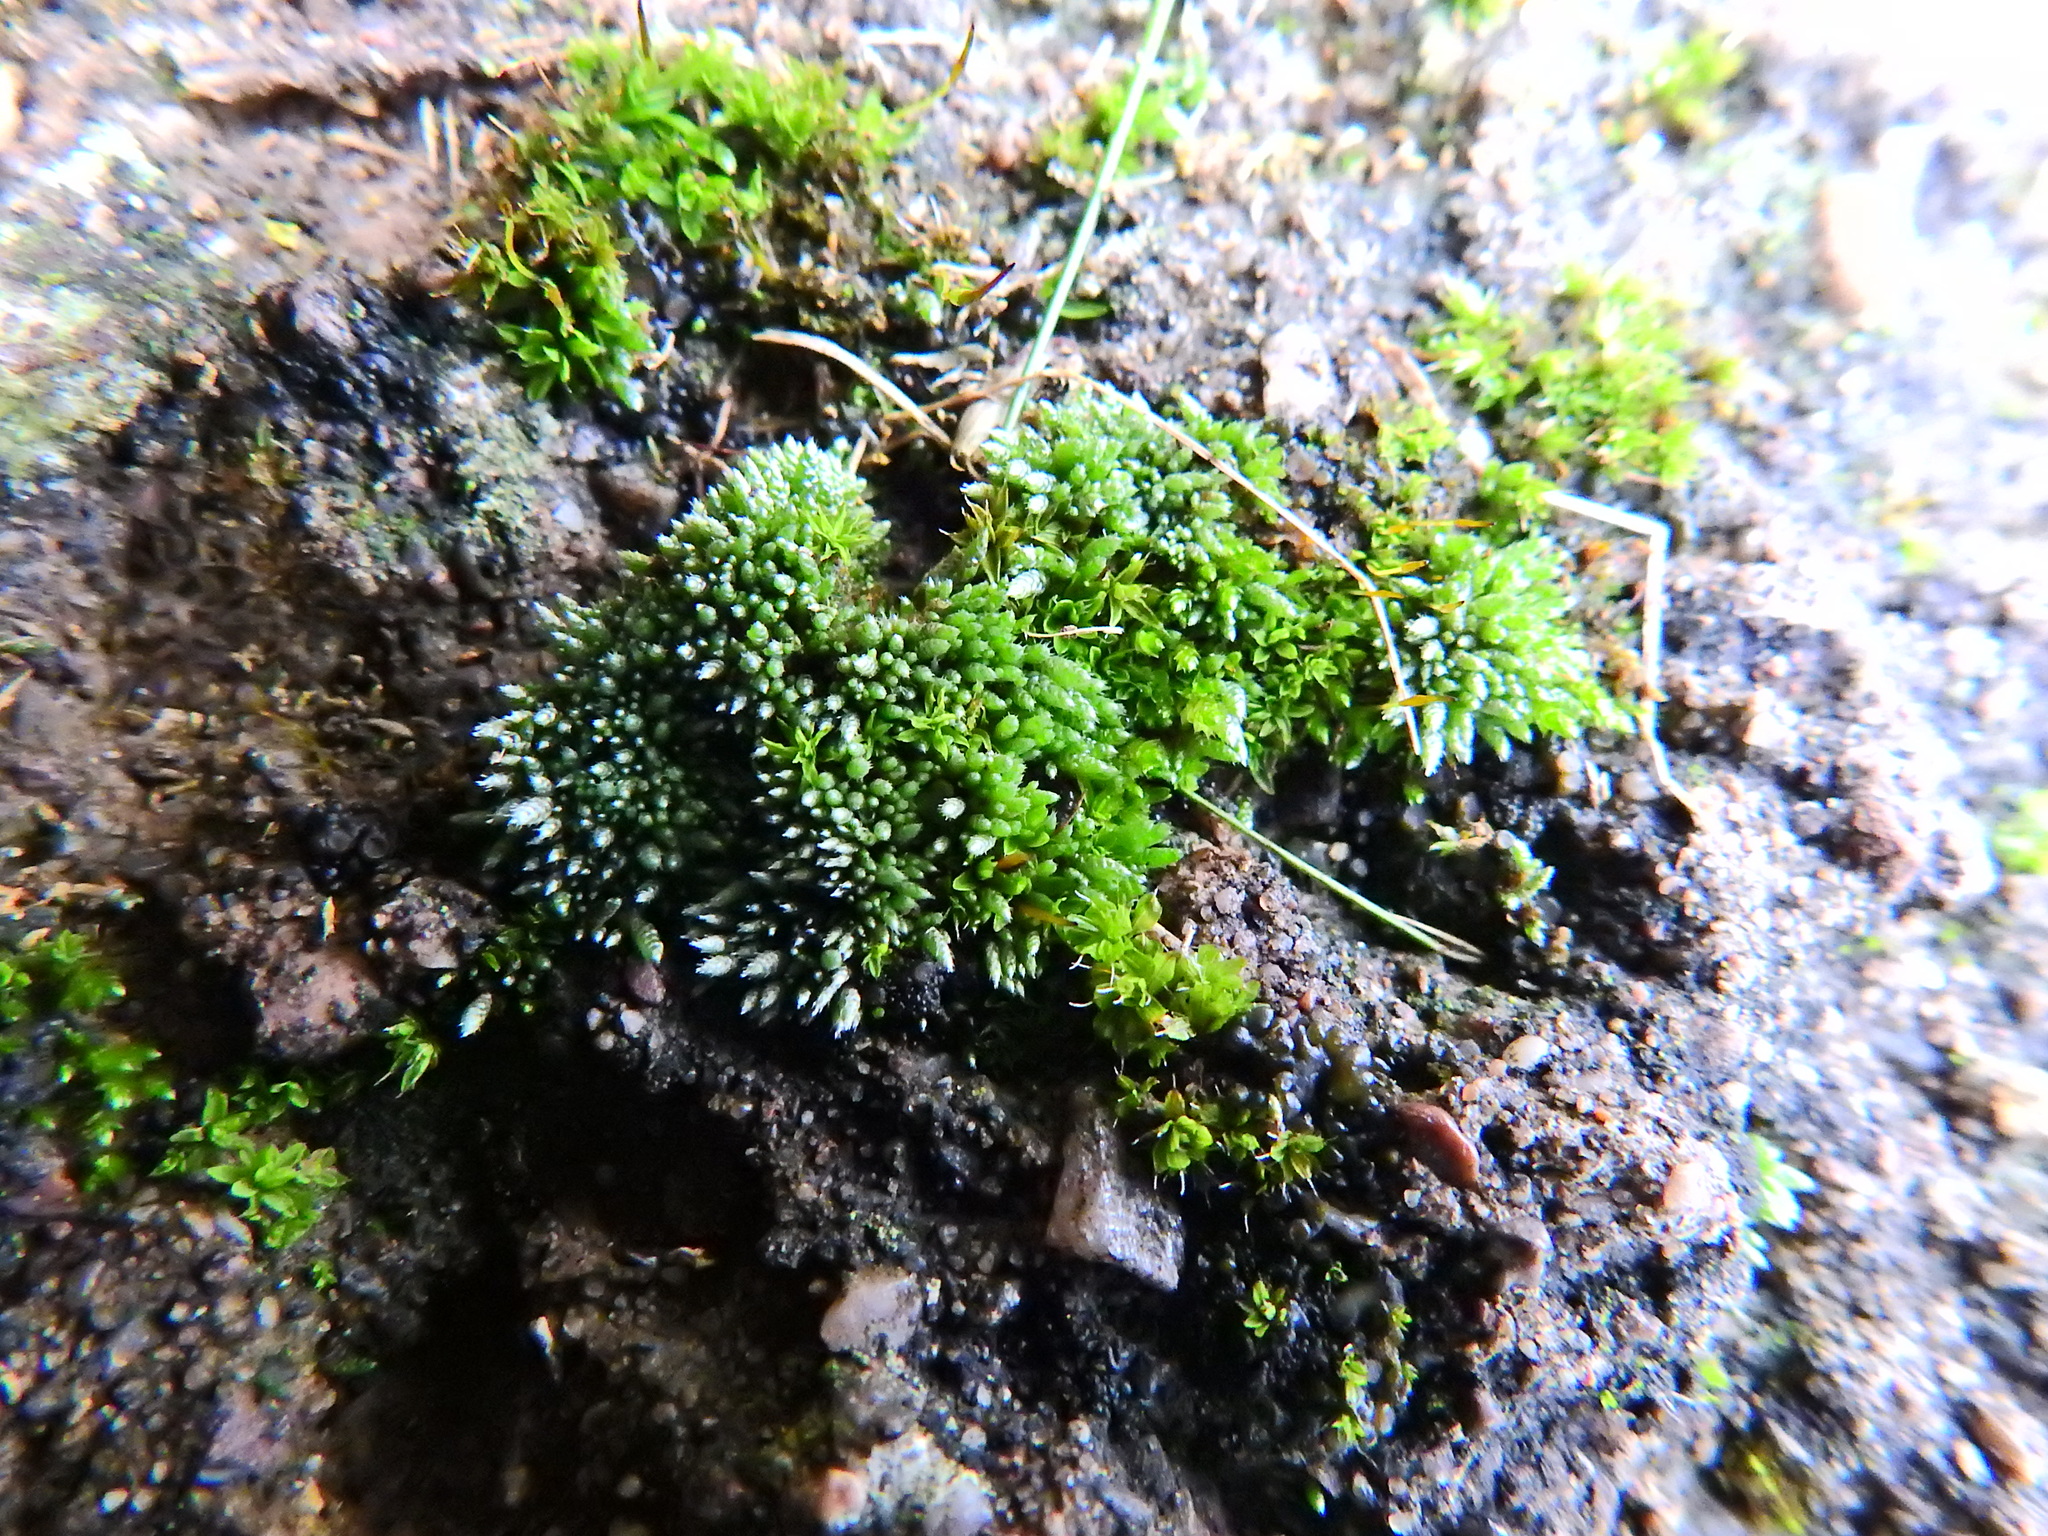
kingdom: Plantae
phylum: Bryophyta
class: Bryopsida
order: Bryales
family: Bryaceae
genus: Bryum
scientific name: Bryum argenteum
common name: Silver-moss
